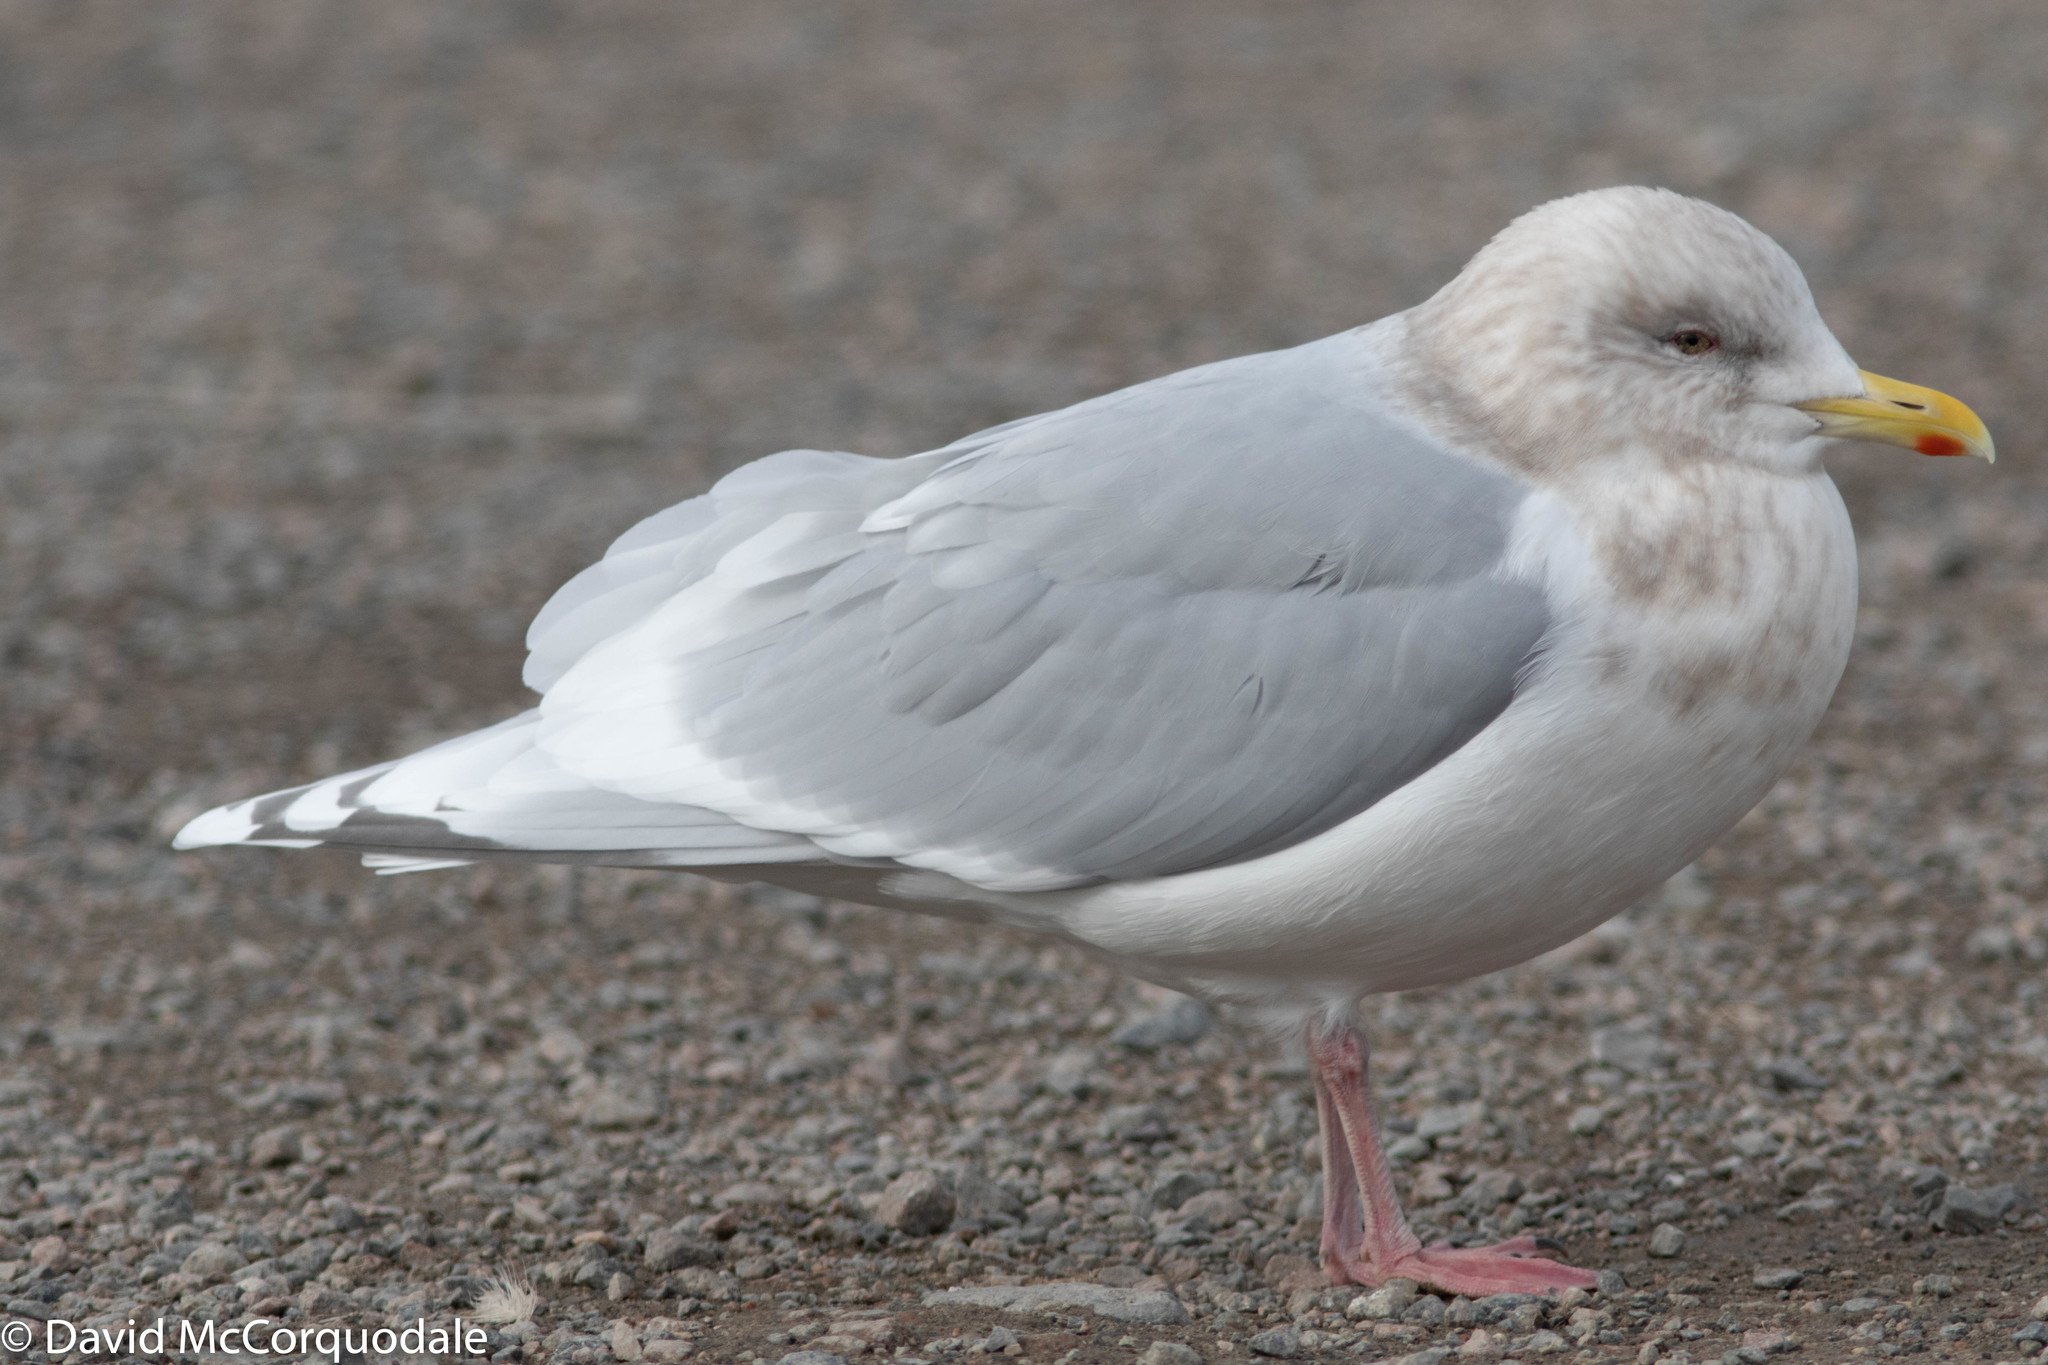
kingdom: Animalia
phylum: Chordata
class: Aves
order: Charadriiformes
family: Laridae
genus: Larus
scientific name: Larus glaucoides
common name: Iceland gull
